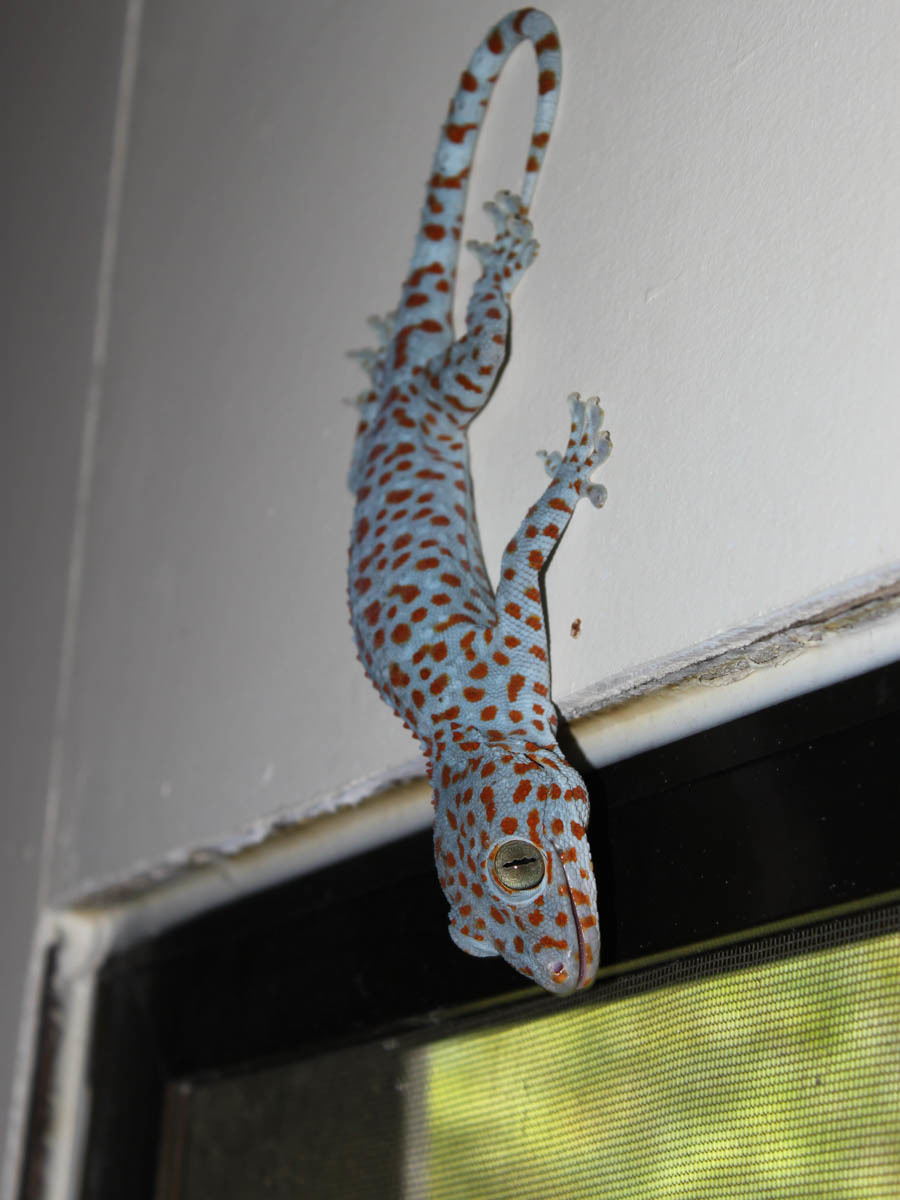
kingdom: Animalia
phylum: Chordata
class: Squamata
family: Gekkonidae
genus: Gekko
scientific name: Gekko gecko
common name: Tokay gecko
